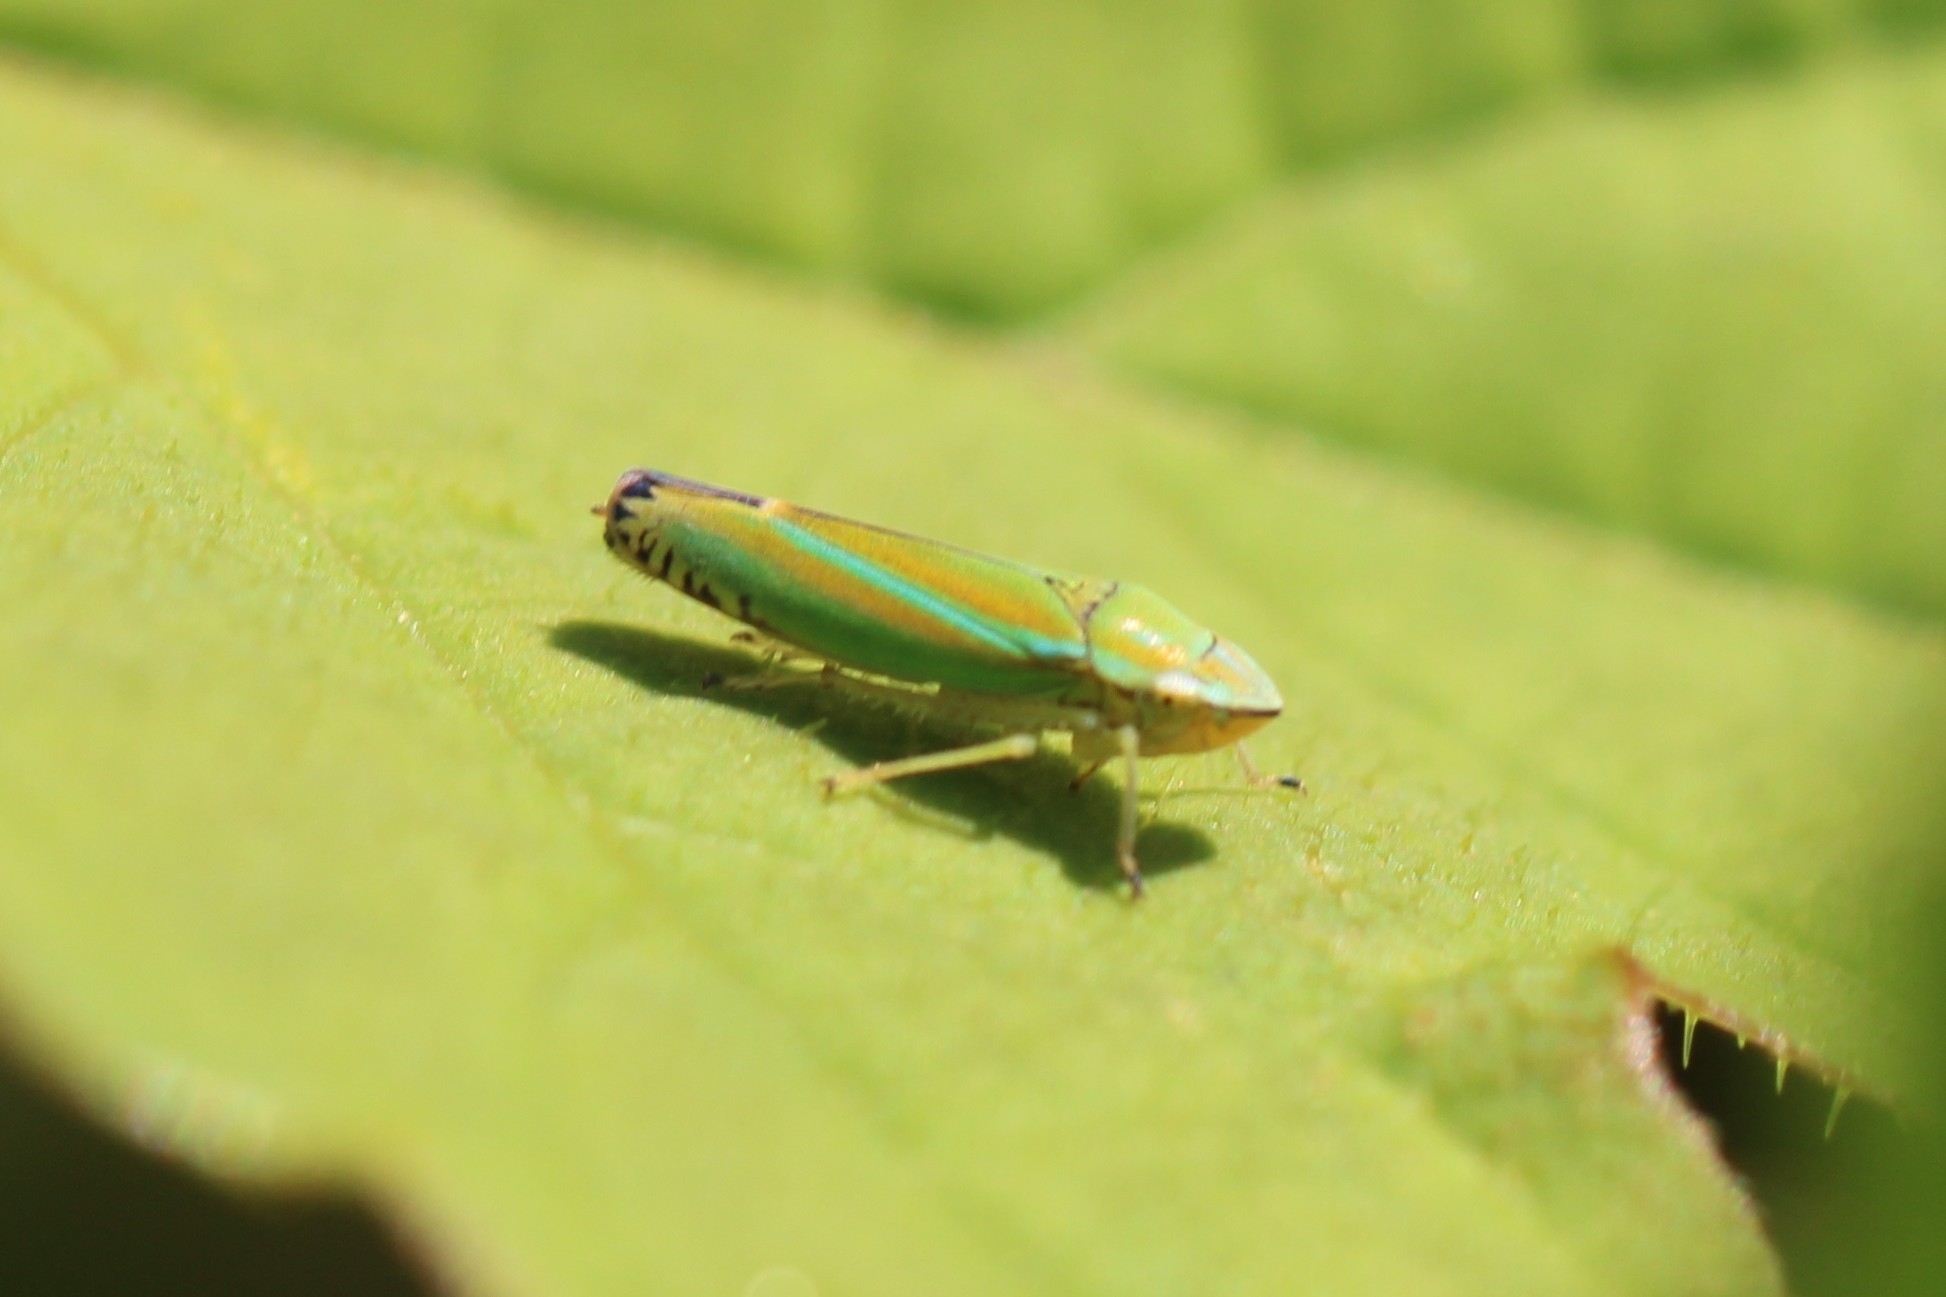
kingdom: Animalia
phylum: Arthropoda
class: Insecta
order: Hemiptera
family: Cicadellidae
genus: Graphocephala
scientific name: Graphocephala versuta
